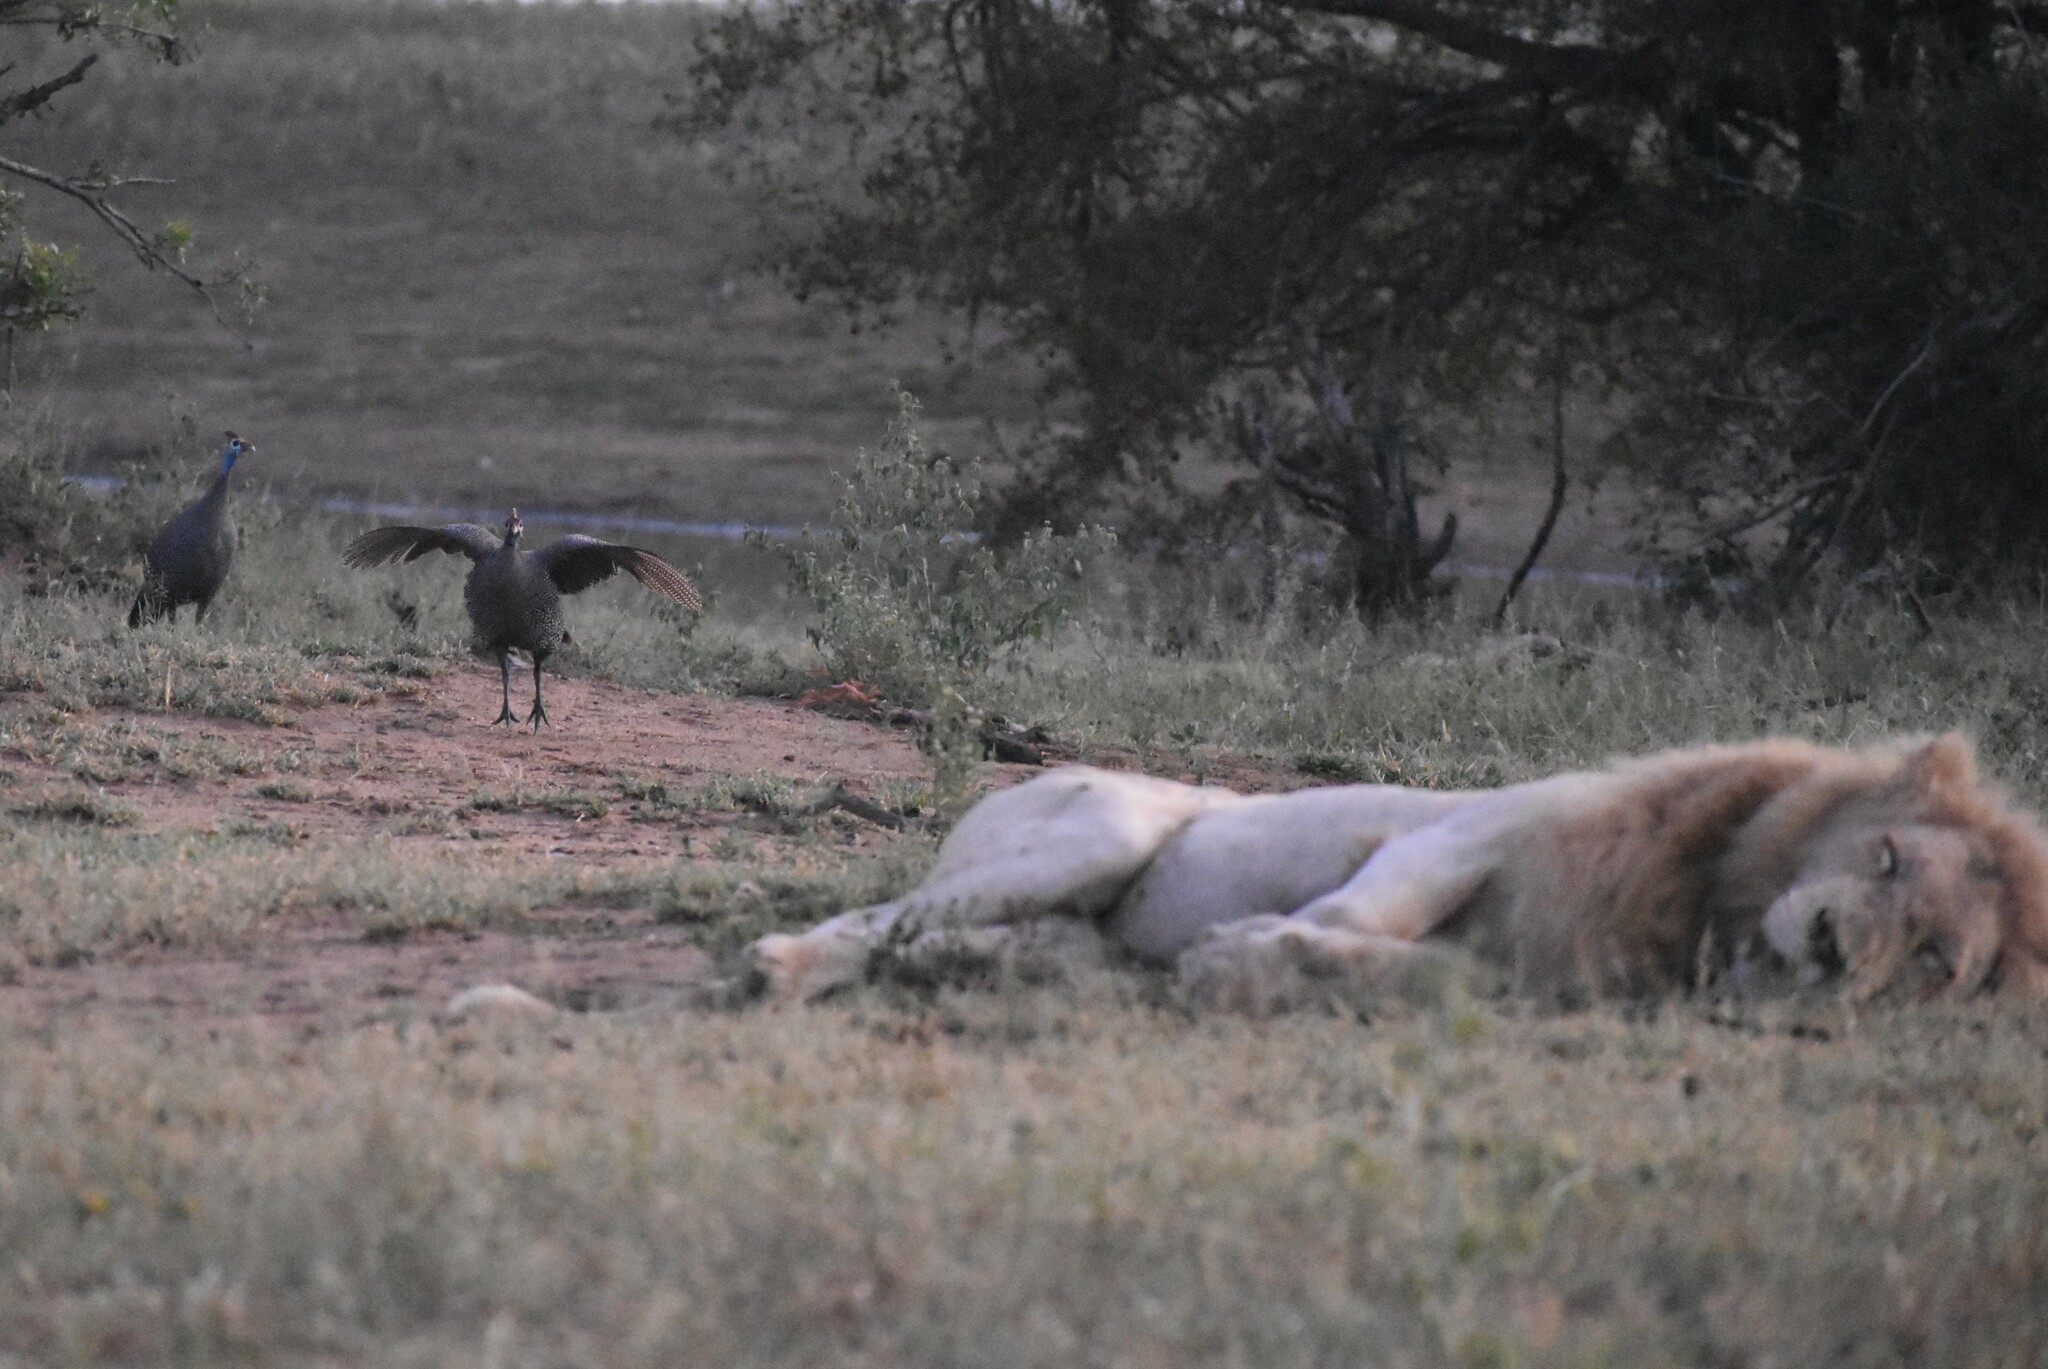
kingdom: Animalia
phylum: Chordata
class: Aves
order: Galliformes
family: Numididae
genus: Numida
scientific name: Numida meleagris
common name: Helmeted guineafowl
